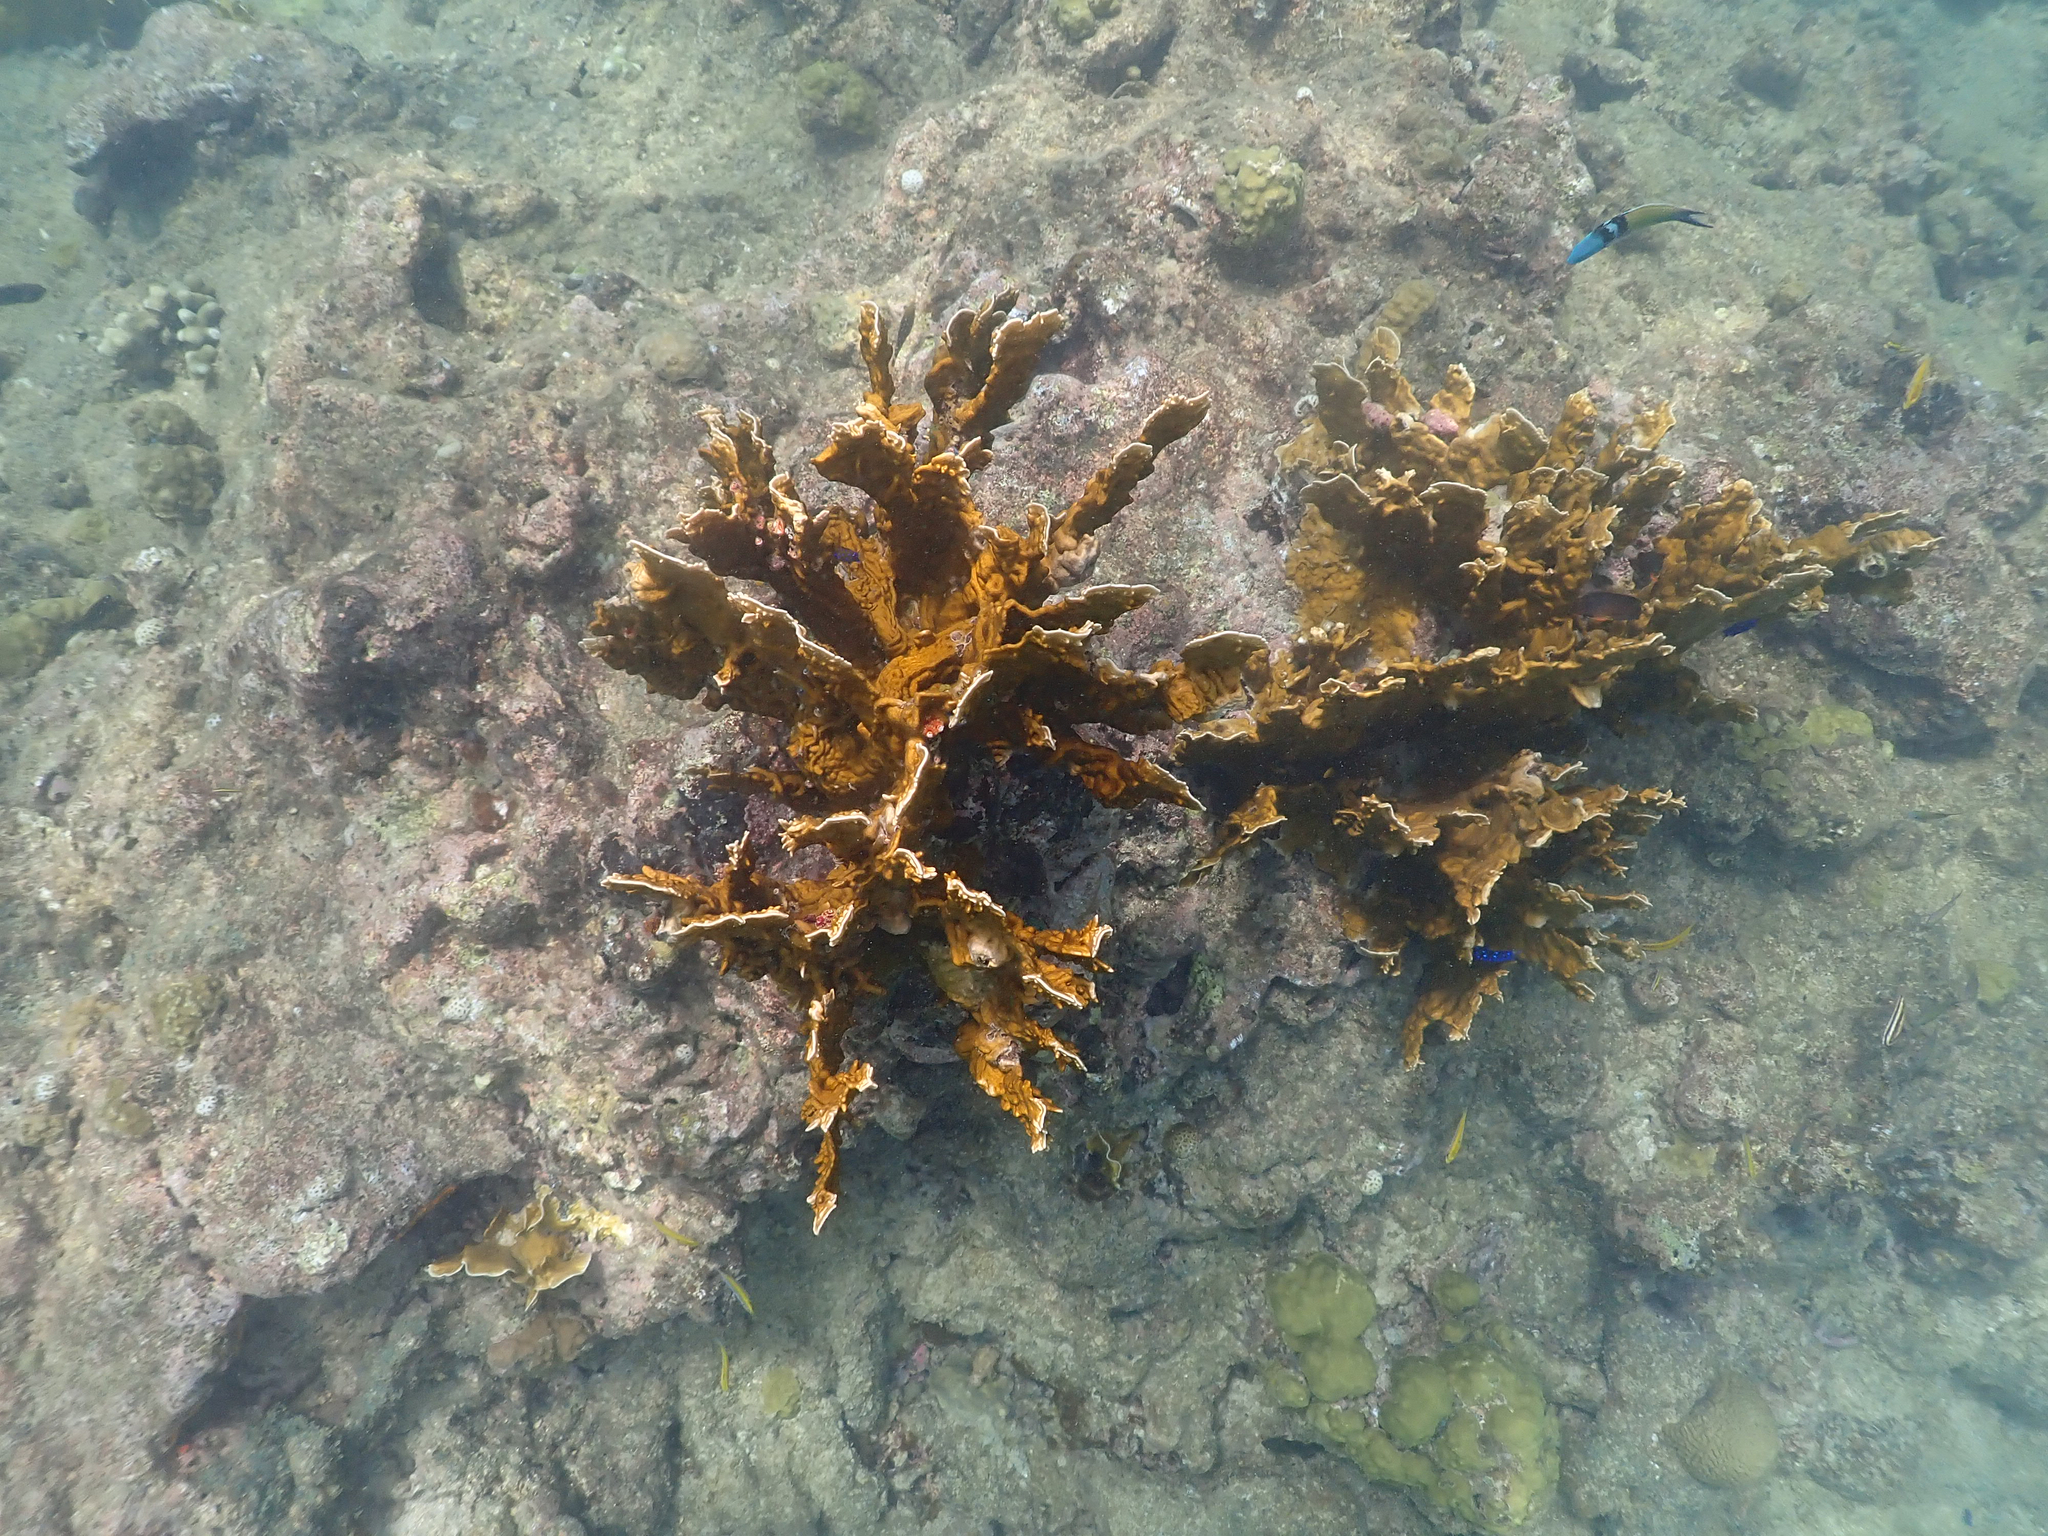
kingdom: Animalia
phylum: Cnidaria
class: Hydrozoa
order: Anthoathecata
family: Milleporidae
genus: Millepora
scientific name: Millepora complanata
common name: Bladed fire coral
